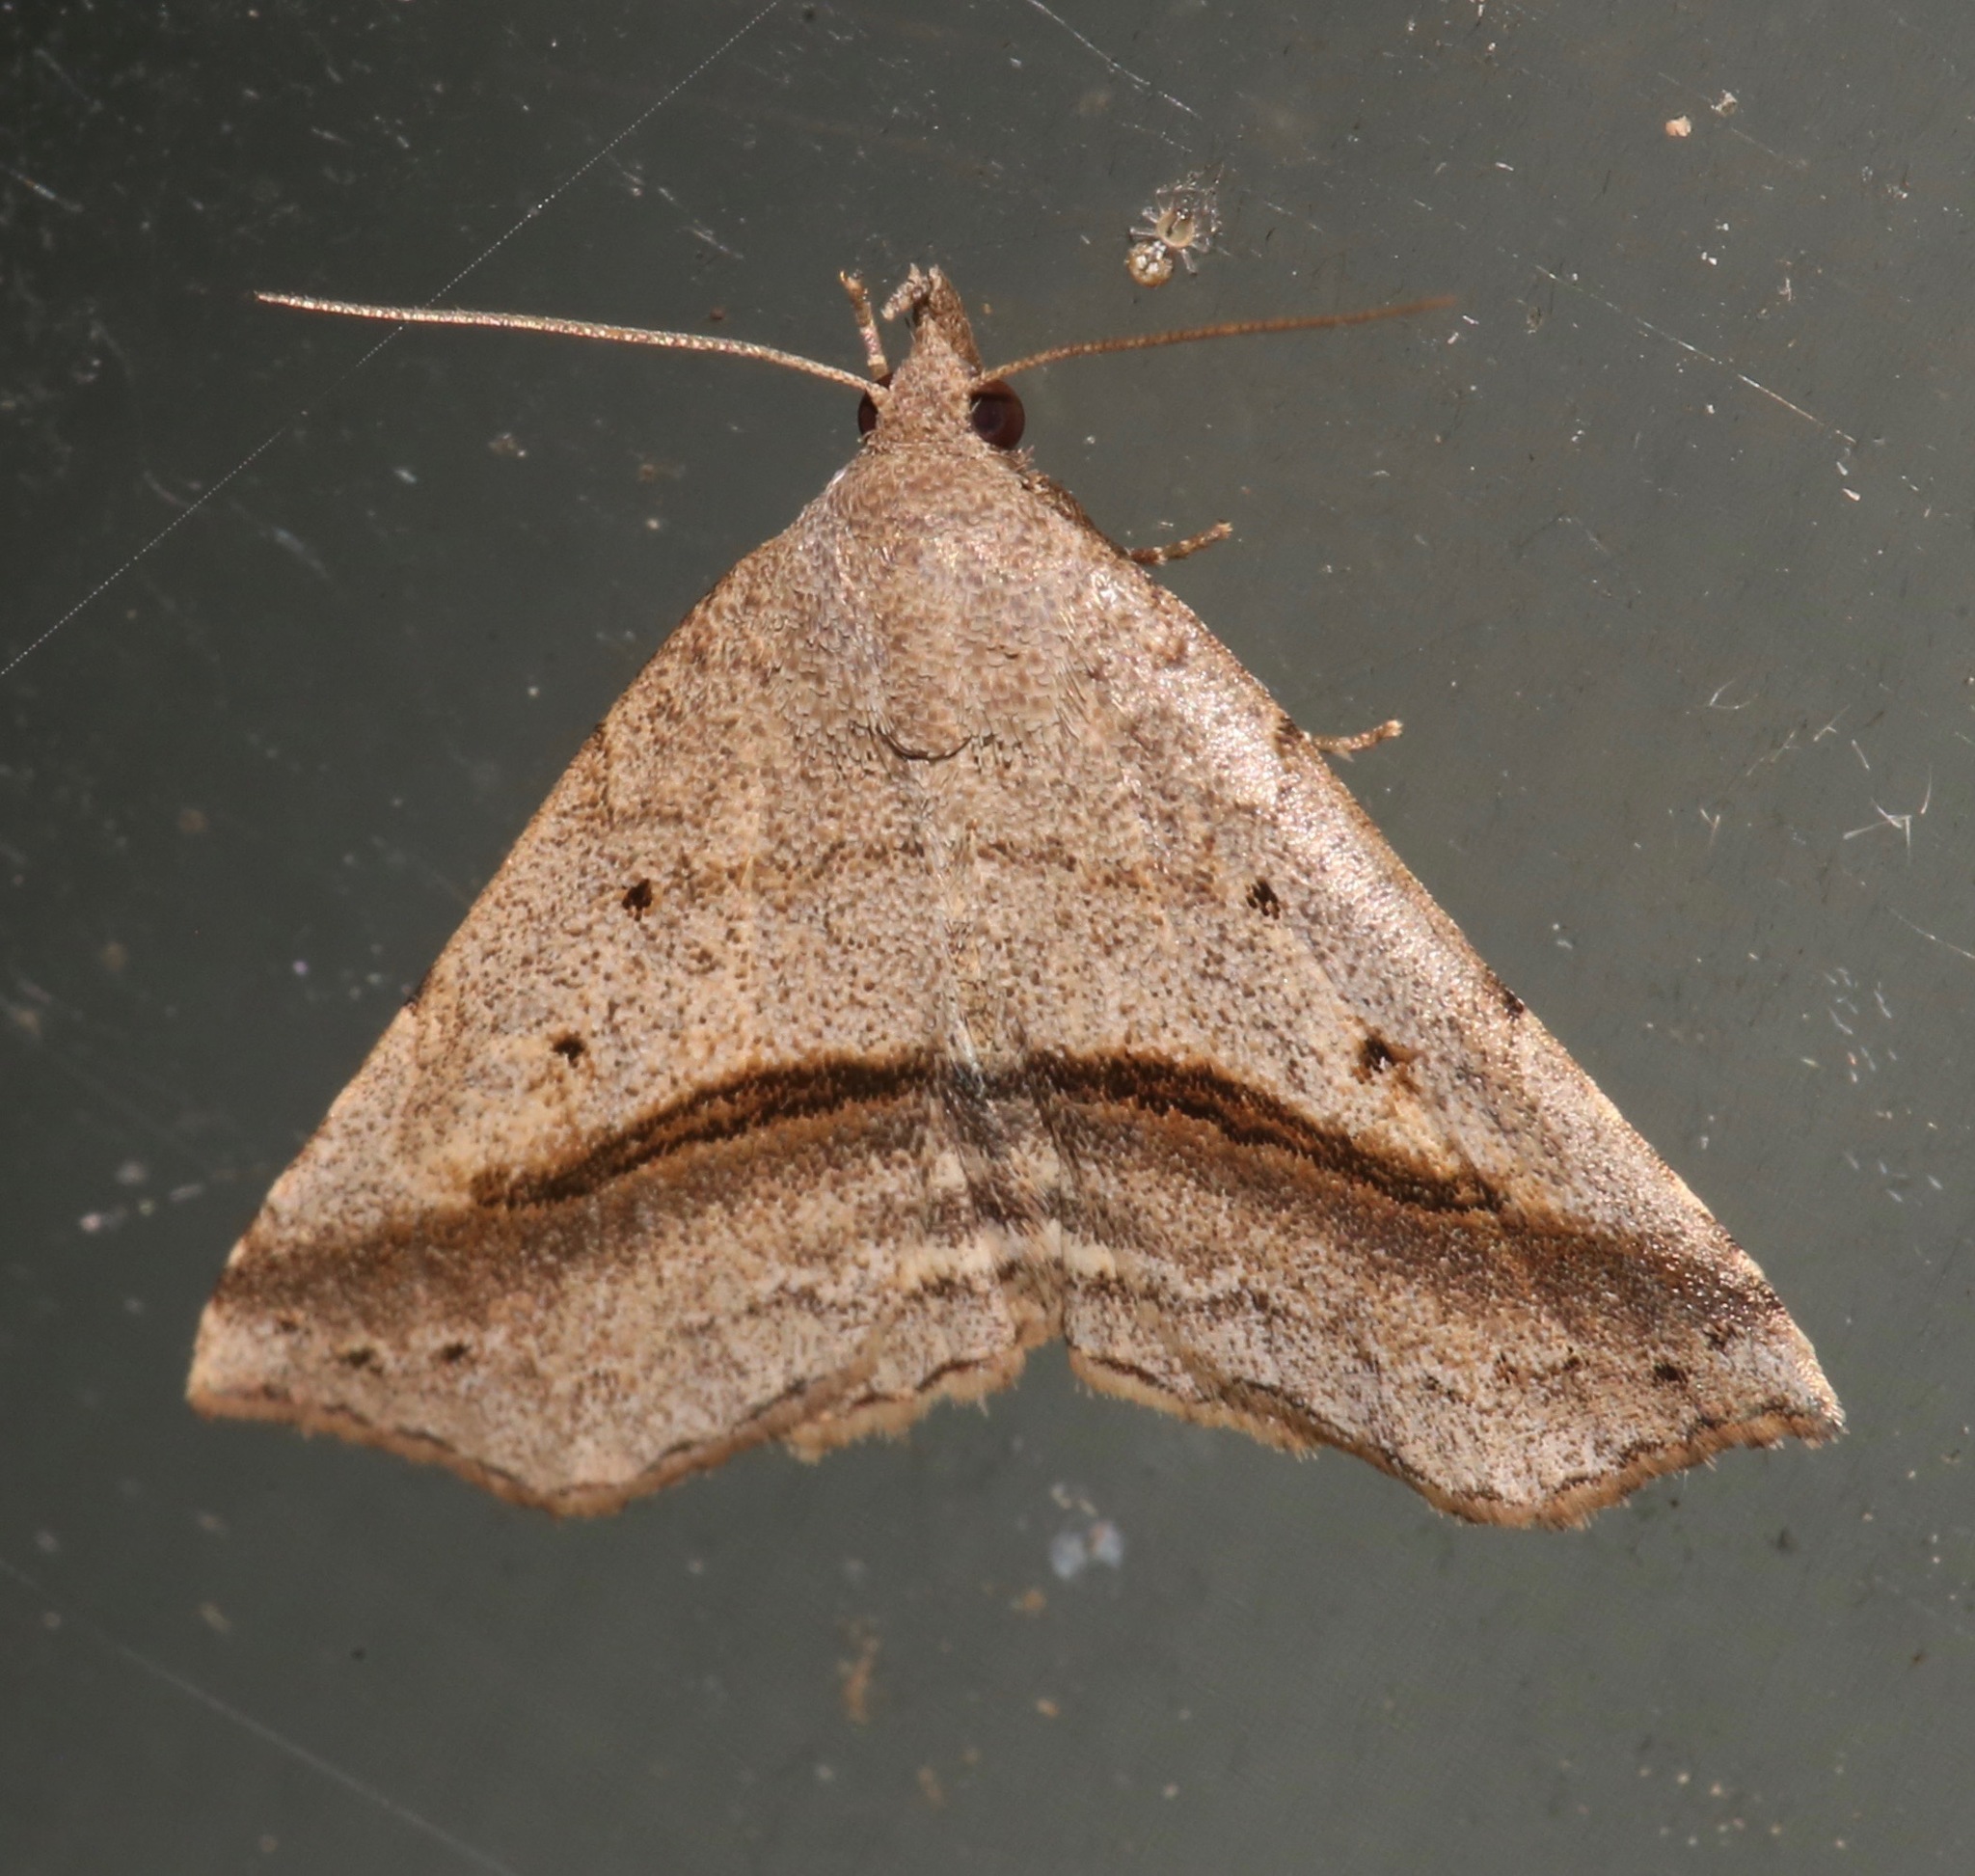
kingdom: Animalia
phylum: Arthropoda
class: Insecta
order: Lepidoptera
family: Erebidae
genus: Spargaloma
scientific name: Spargaloma perditalis
